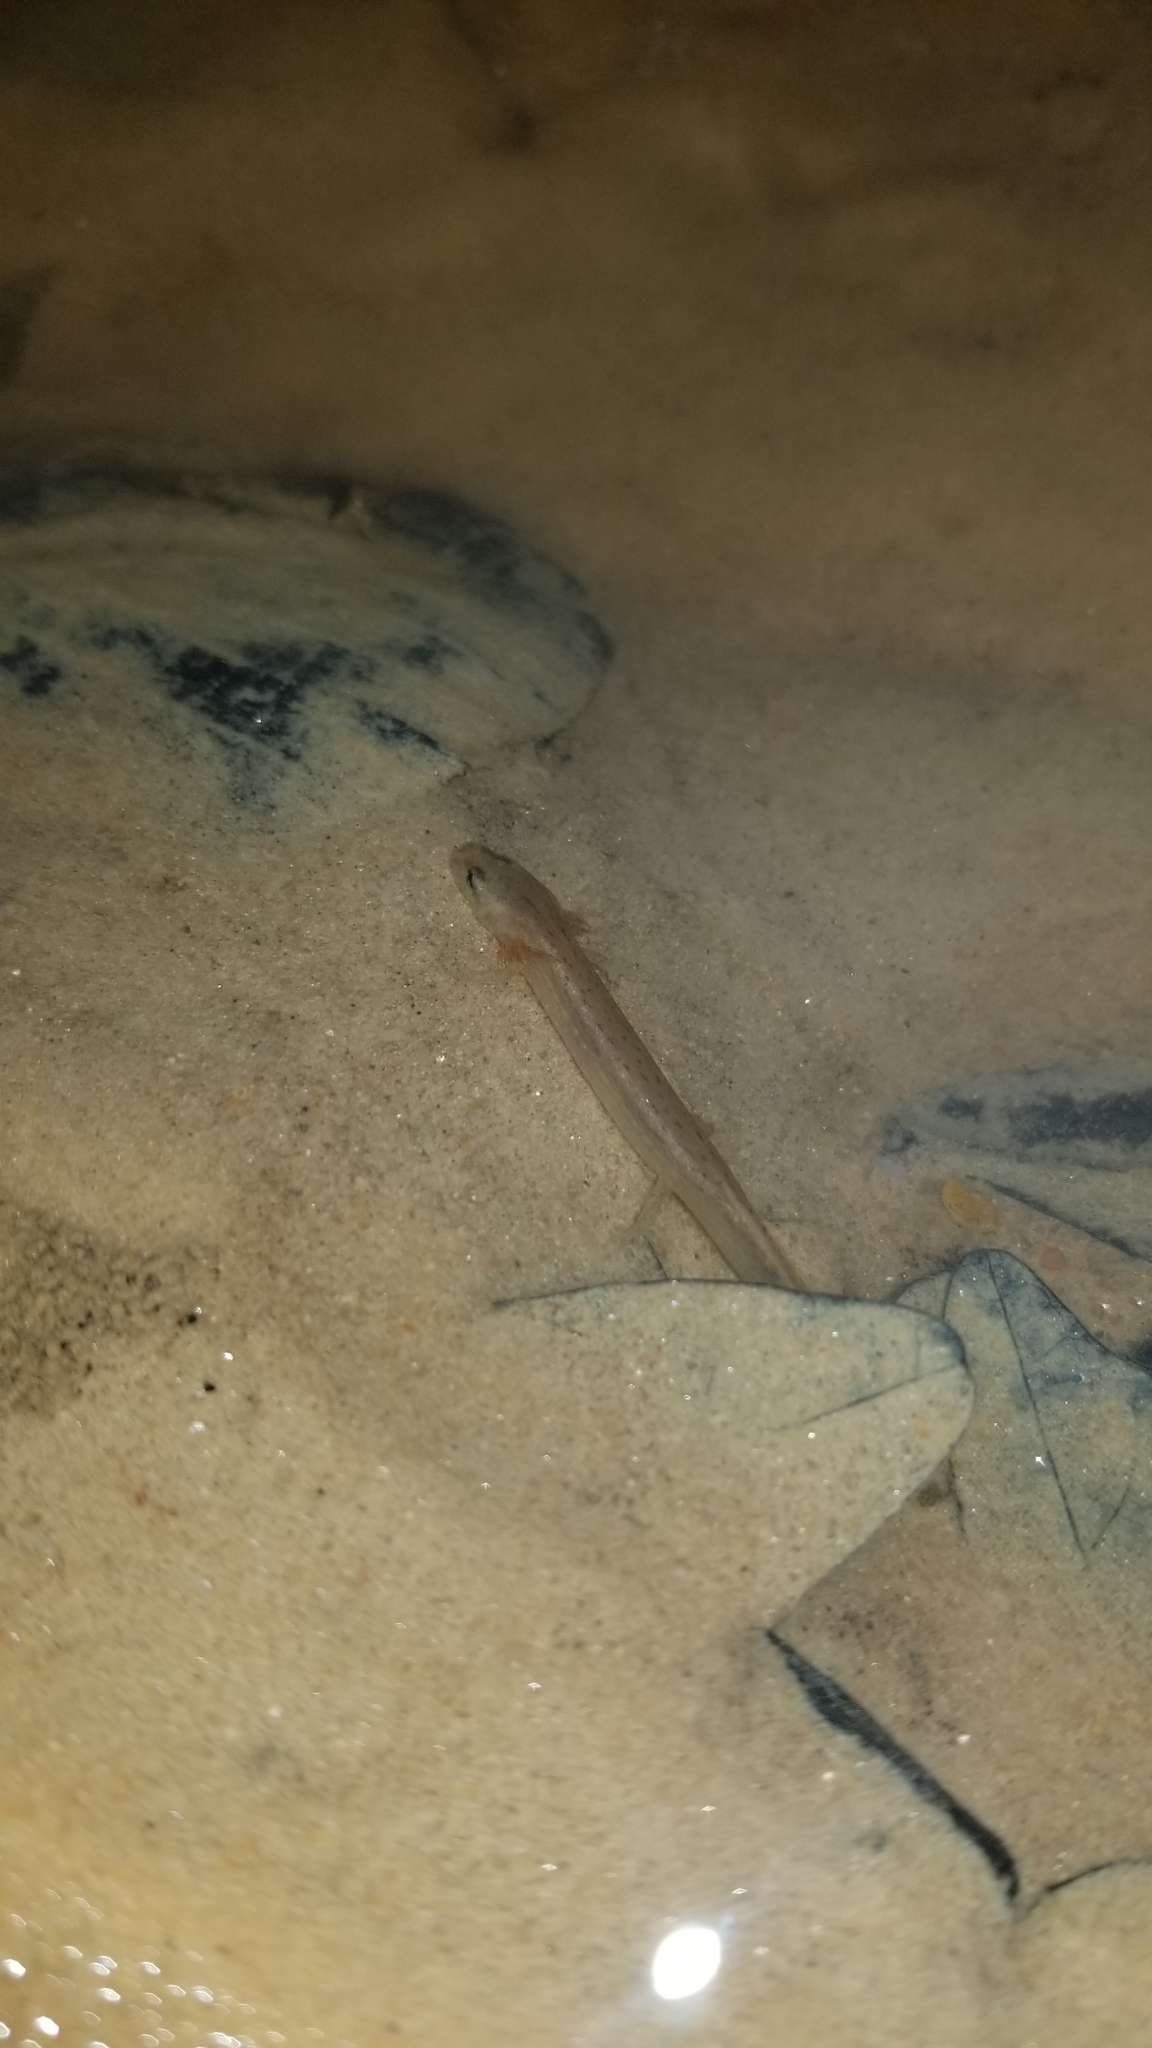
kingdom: Animalia
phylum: Chordata
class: Amphibia
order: Caudata
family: Plethodontidae
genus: Eurycea
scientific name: Eurycea cirrigera
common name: Southern two-lined salamander
